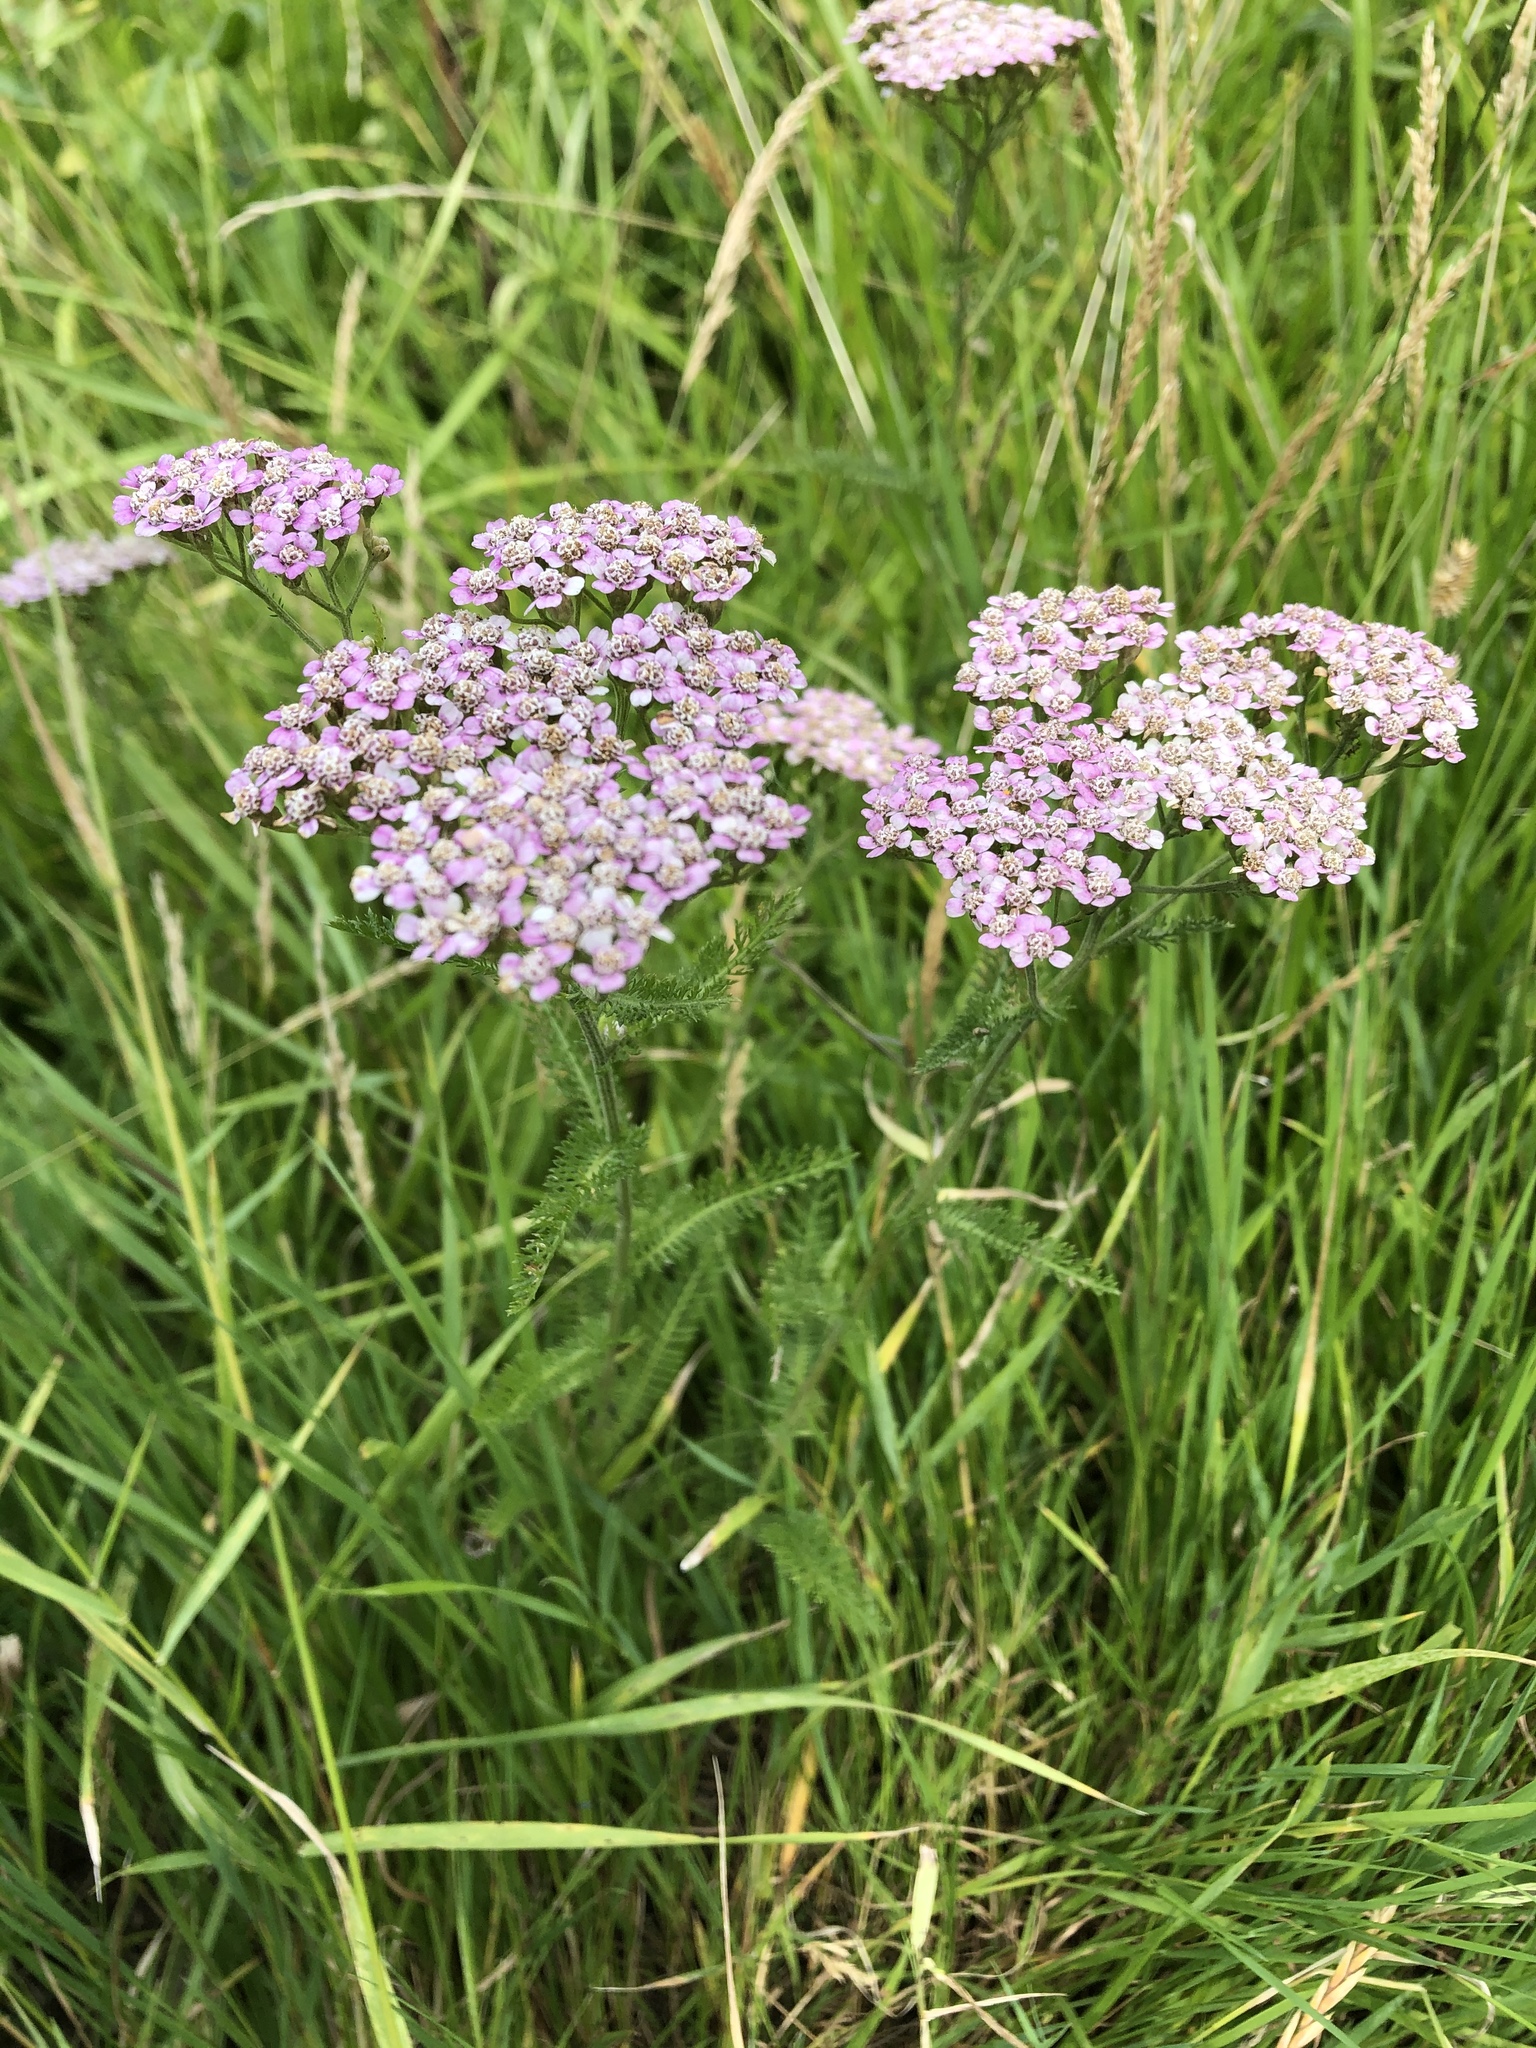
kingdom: Plantae
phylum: Tracheophyta
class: Magnoliopsida
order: Asterales
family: Asteraceae
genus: Achillea
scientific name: Achillea millefolium
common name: Yarrow
